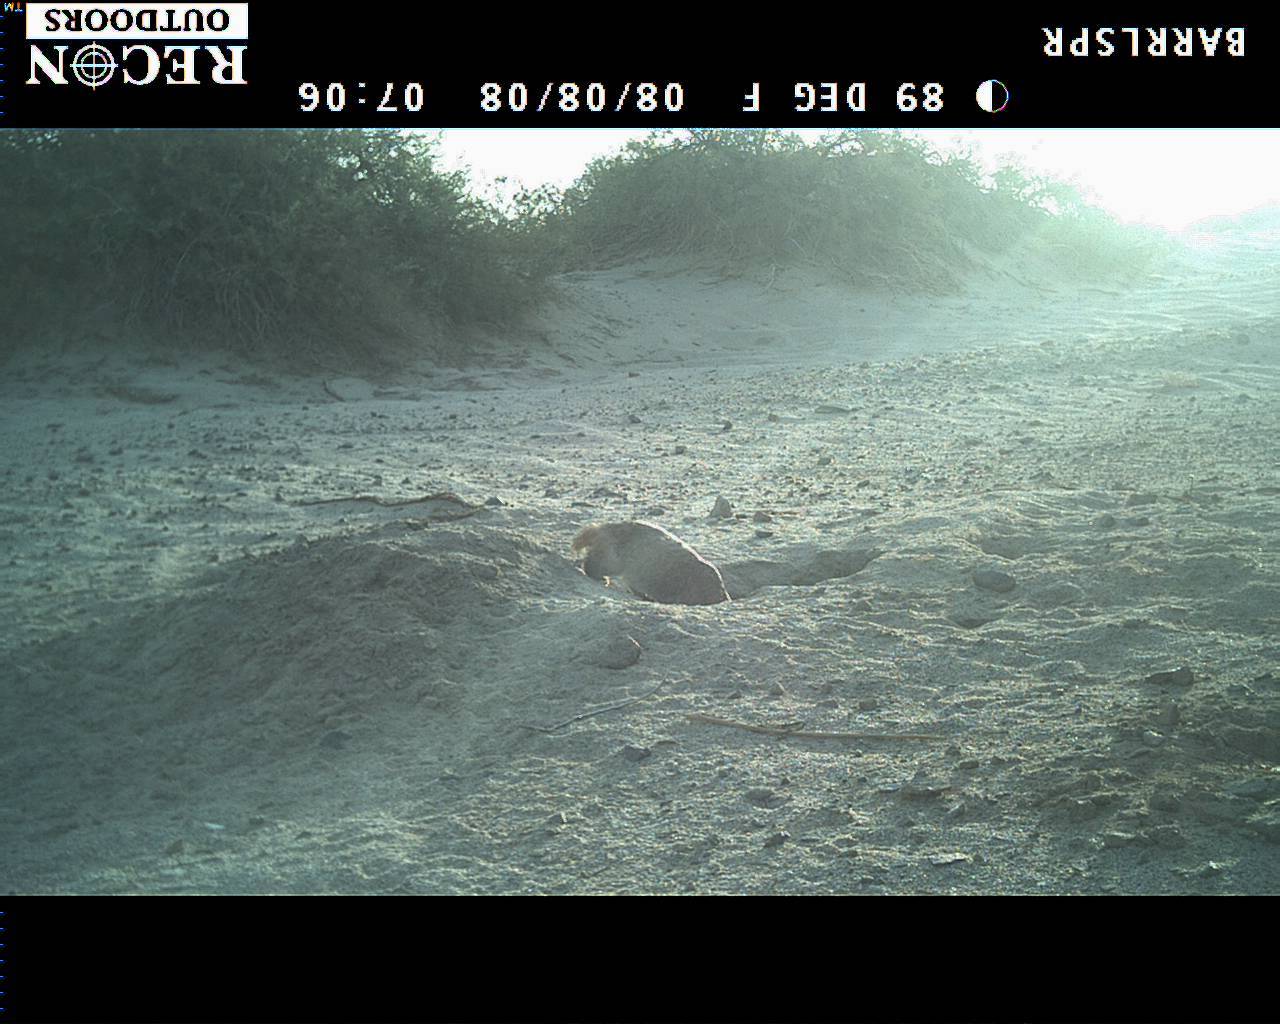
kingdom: Animalia
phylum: Chordata
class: Mammalia
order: Carnivora
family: Mustelidae
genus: Taxidea
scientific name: Taxidea taxus
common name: American badger
